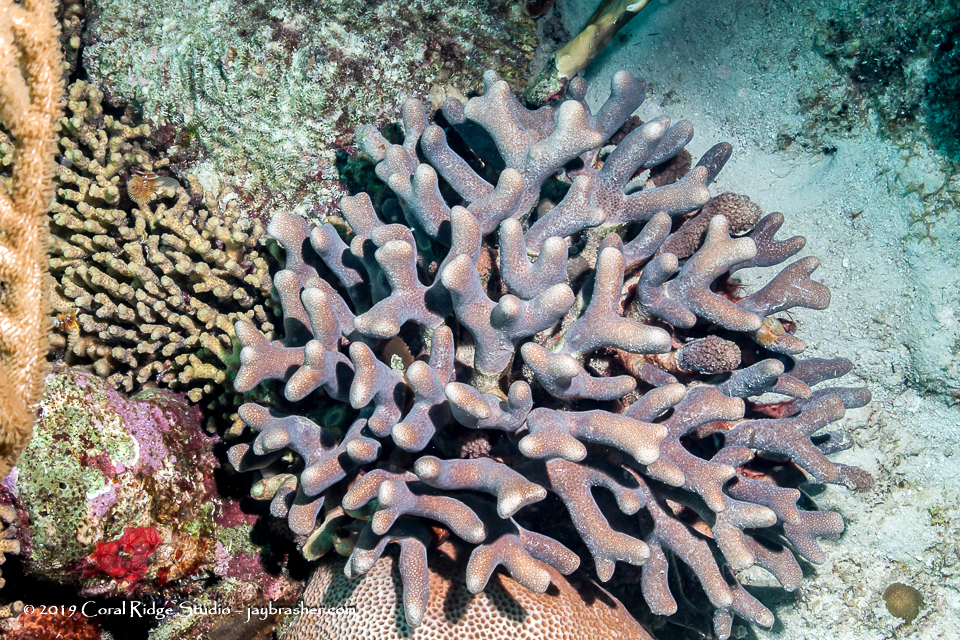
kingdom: Animalia
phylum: Cnidaria
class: Anthozoa
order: Scleractinia
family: Poritidae
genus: Porites
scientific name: Porites divaricata
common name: Thin finger coral
